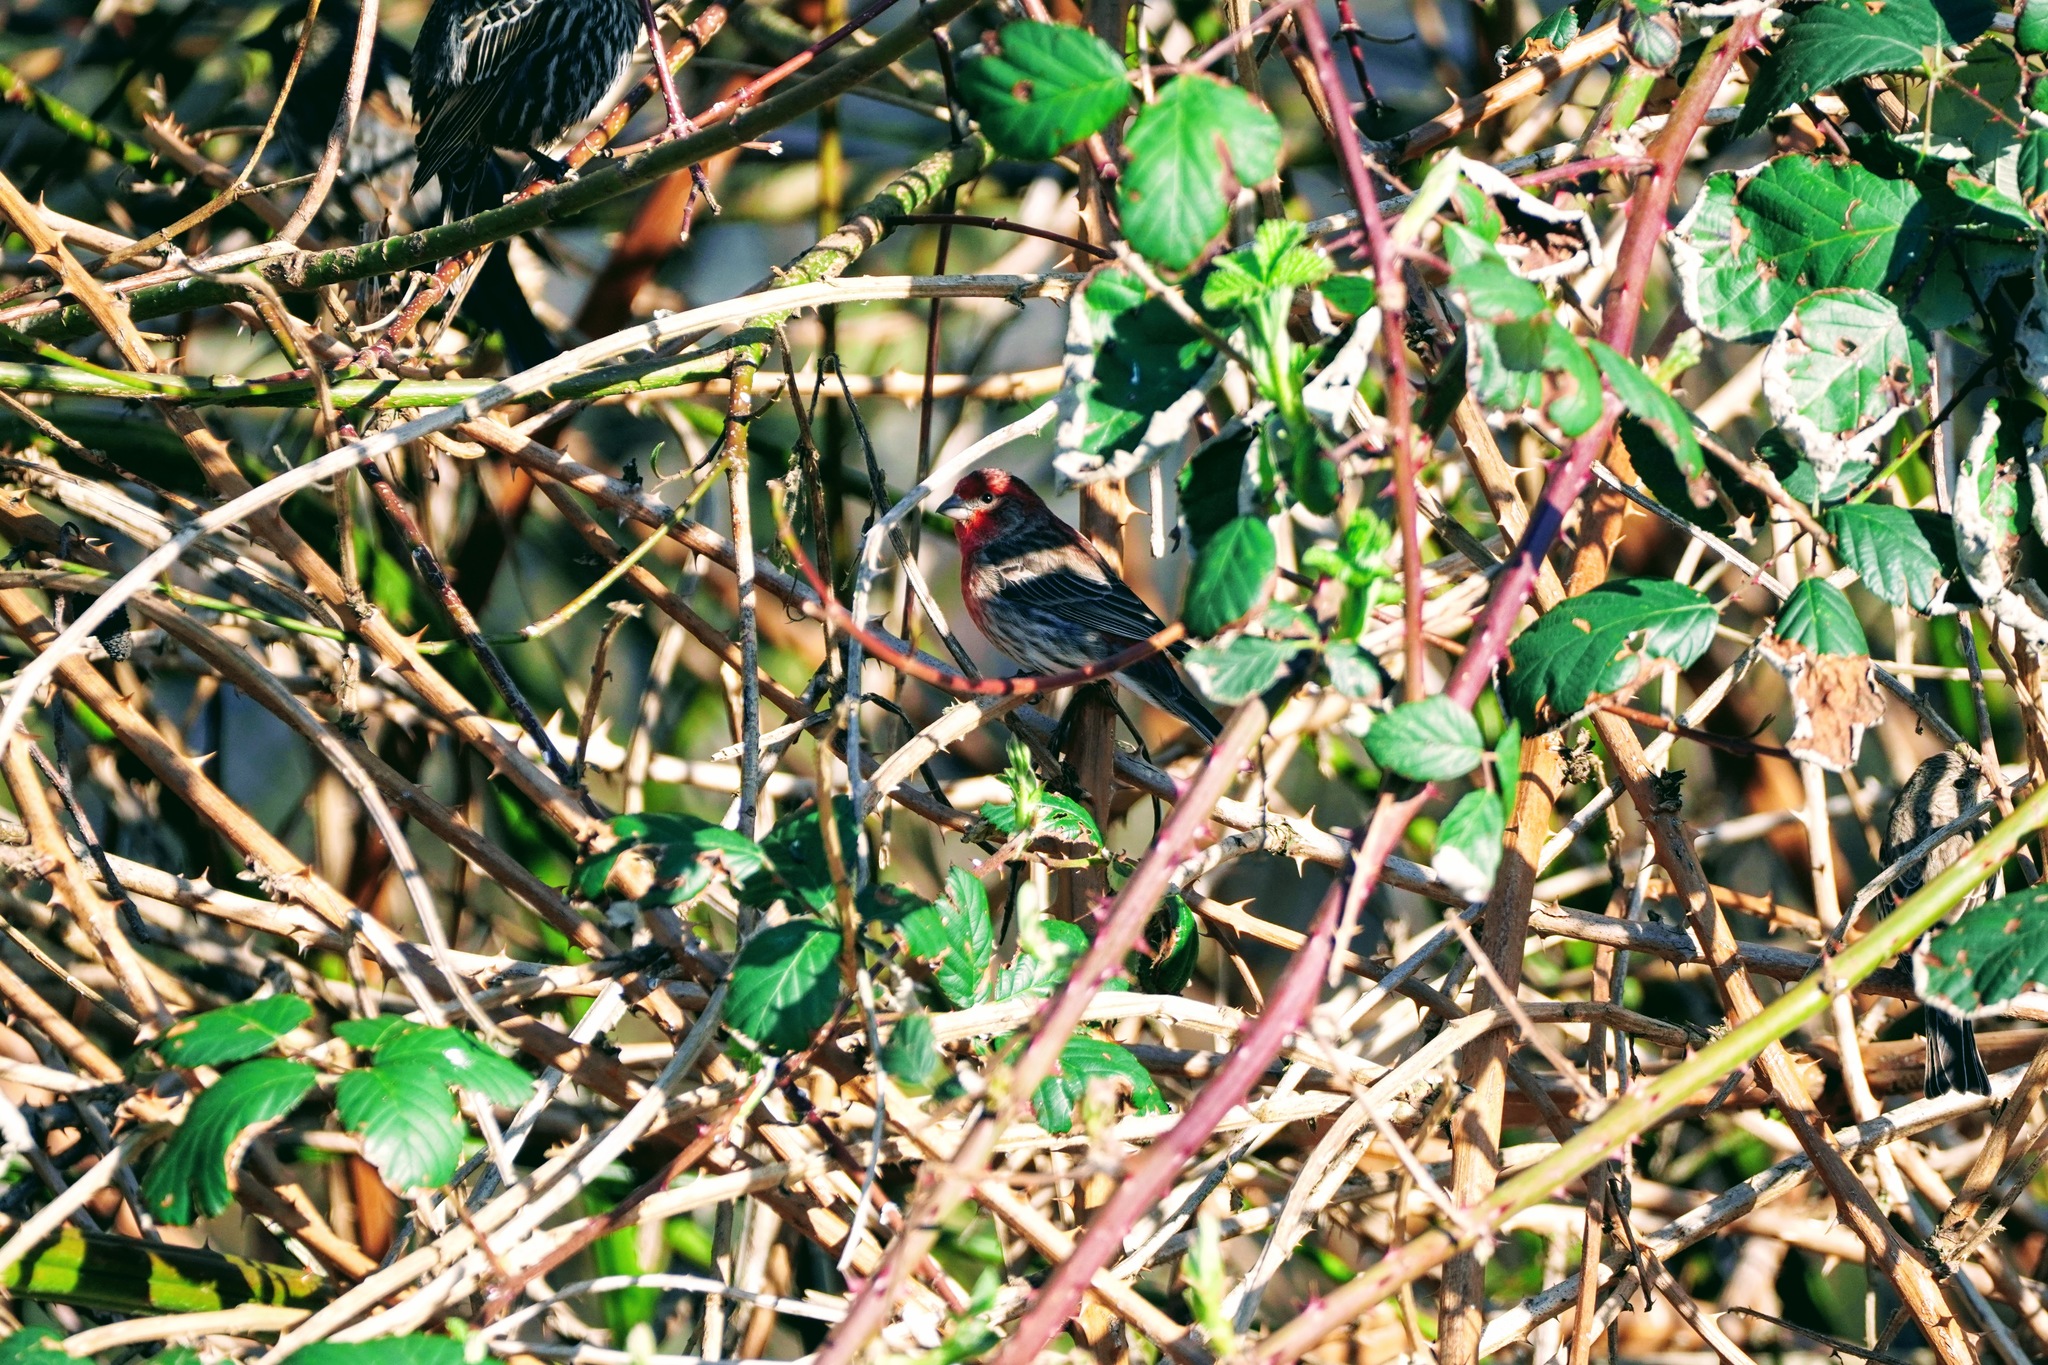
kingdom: Animalia
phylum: Chordata
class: Aves
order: Passeriformes
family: Fringillidae
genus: Haemorhous
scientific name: Haemorhous mexicanus
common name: House finch
